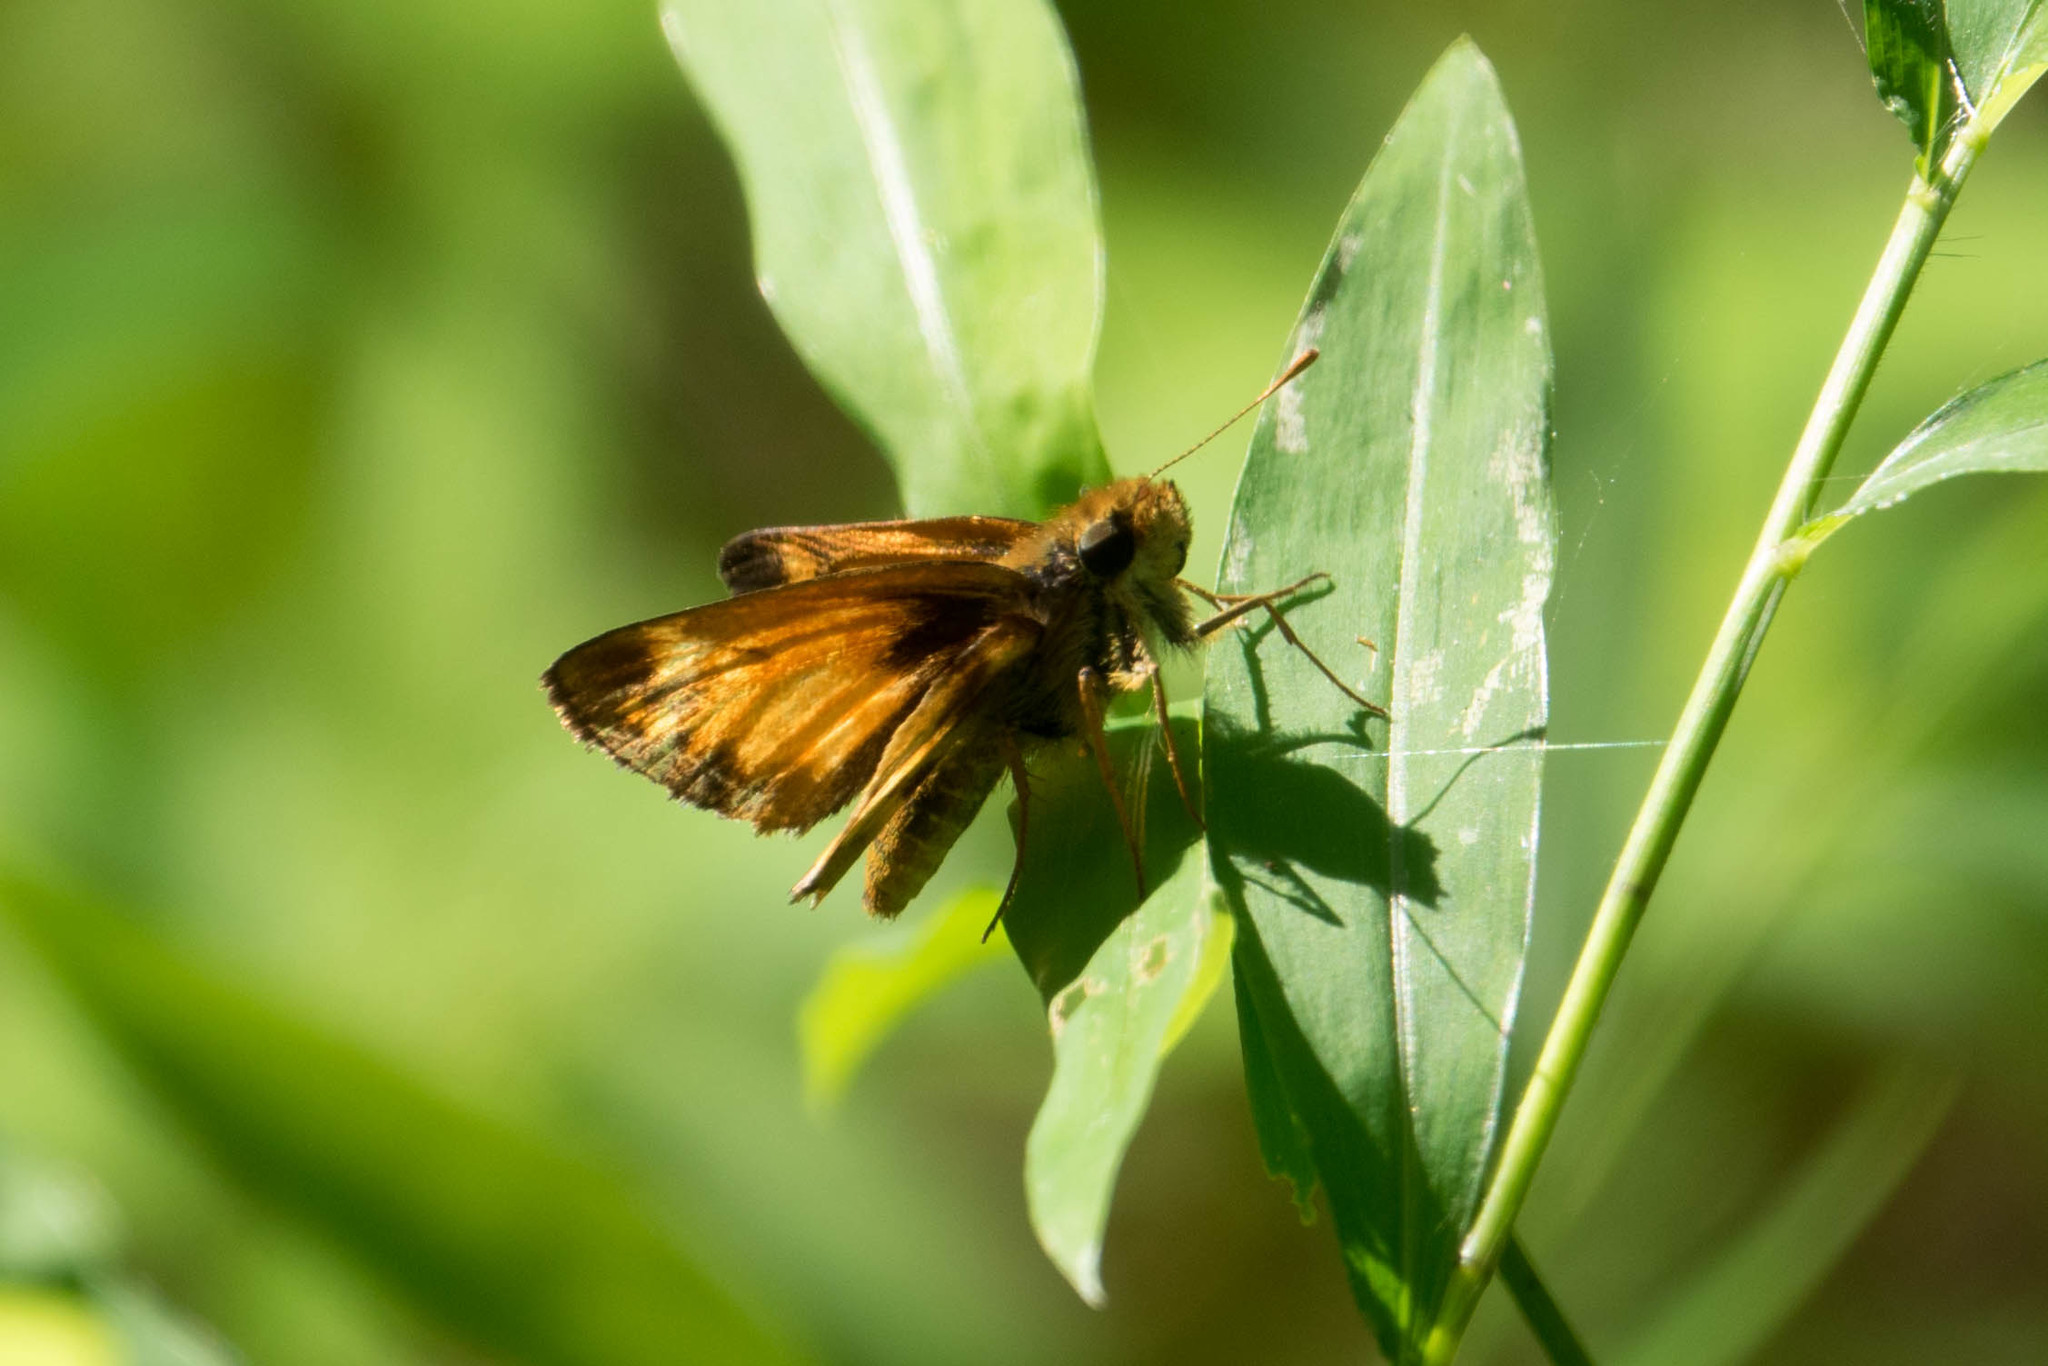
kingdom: Animalia
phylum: Arthropoda
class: Insecta
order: Lepidoptera
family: Hesperiidae
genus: Lon
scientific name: Lon zabulon
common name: Zabulon skipper
